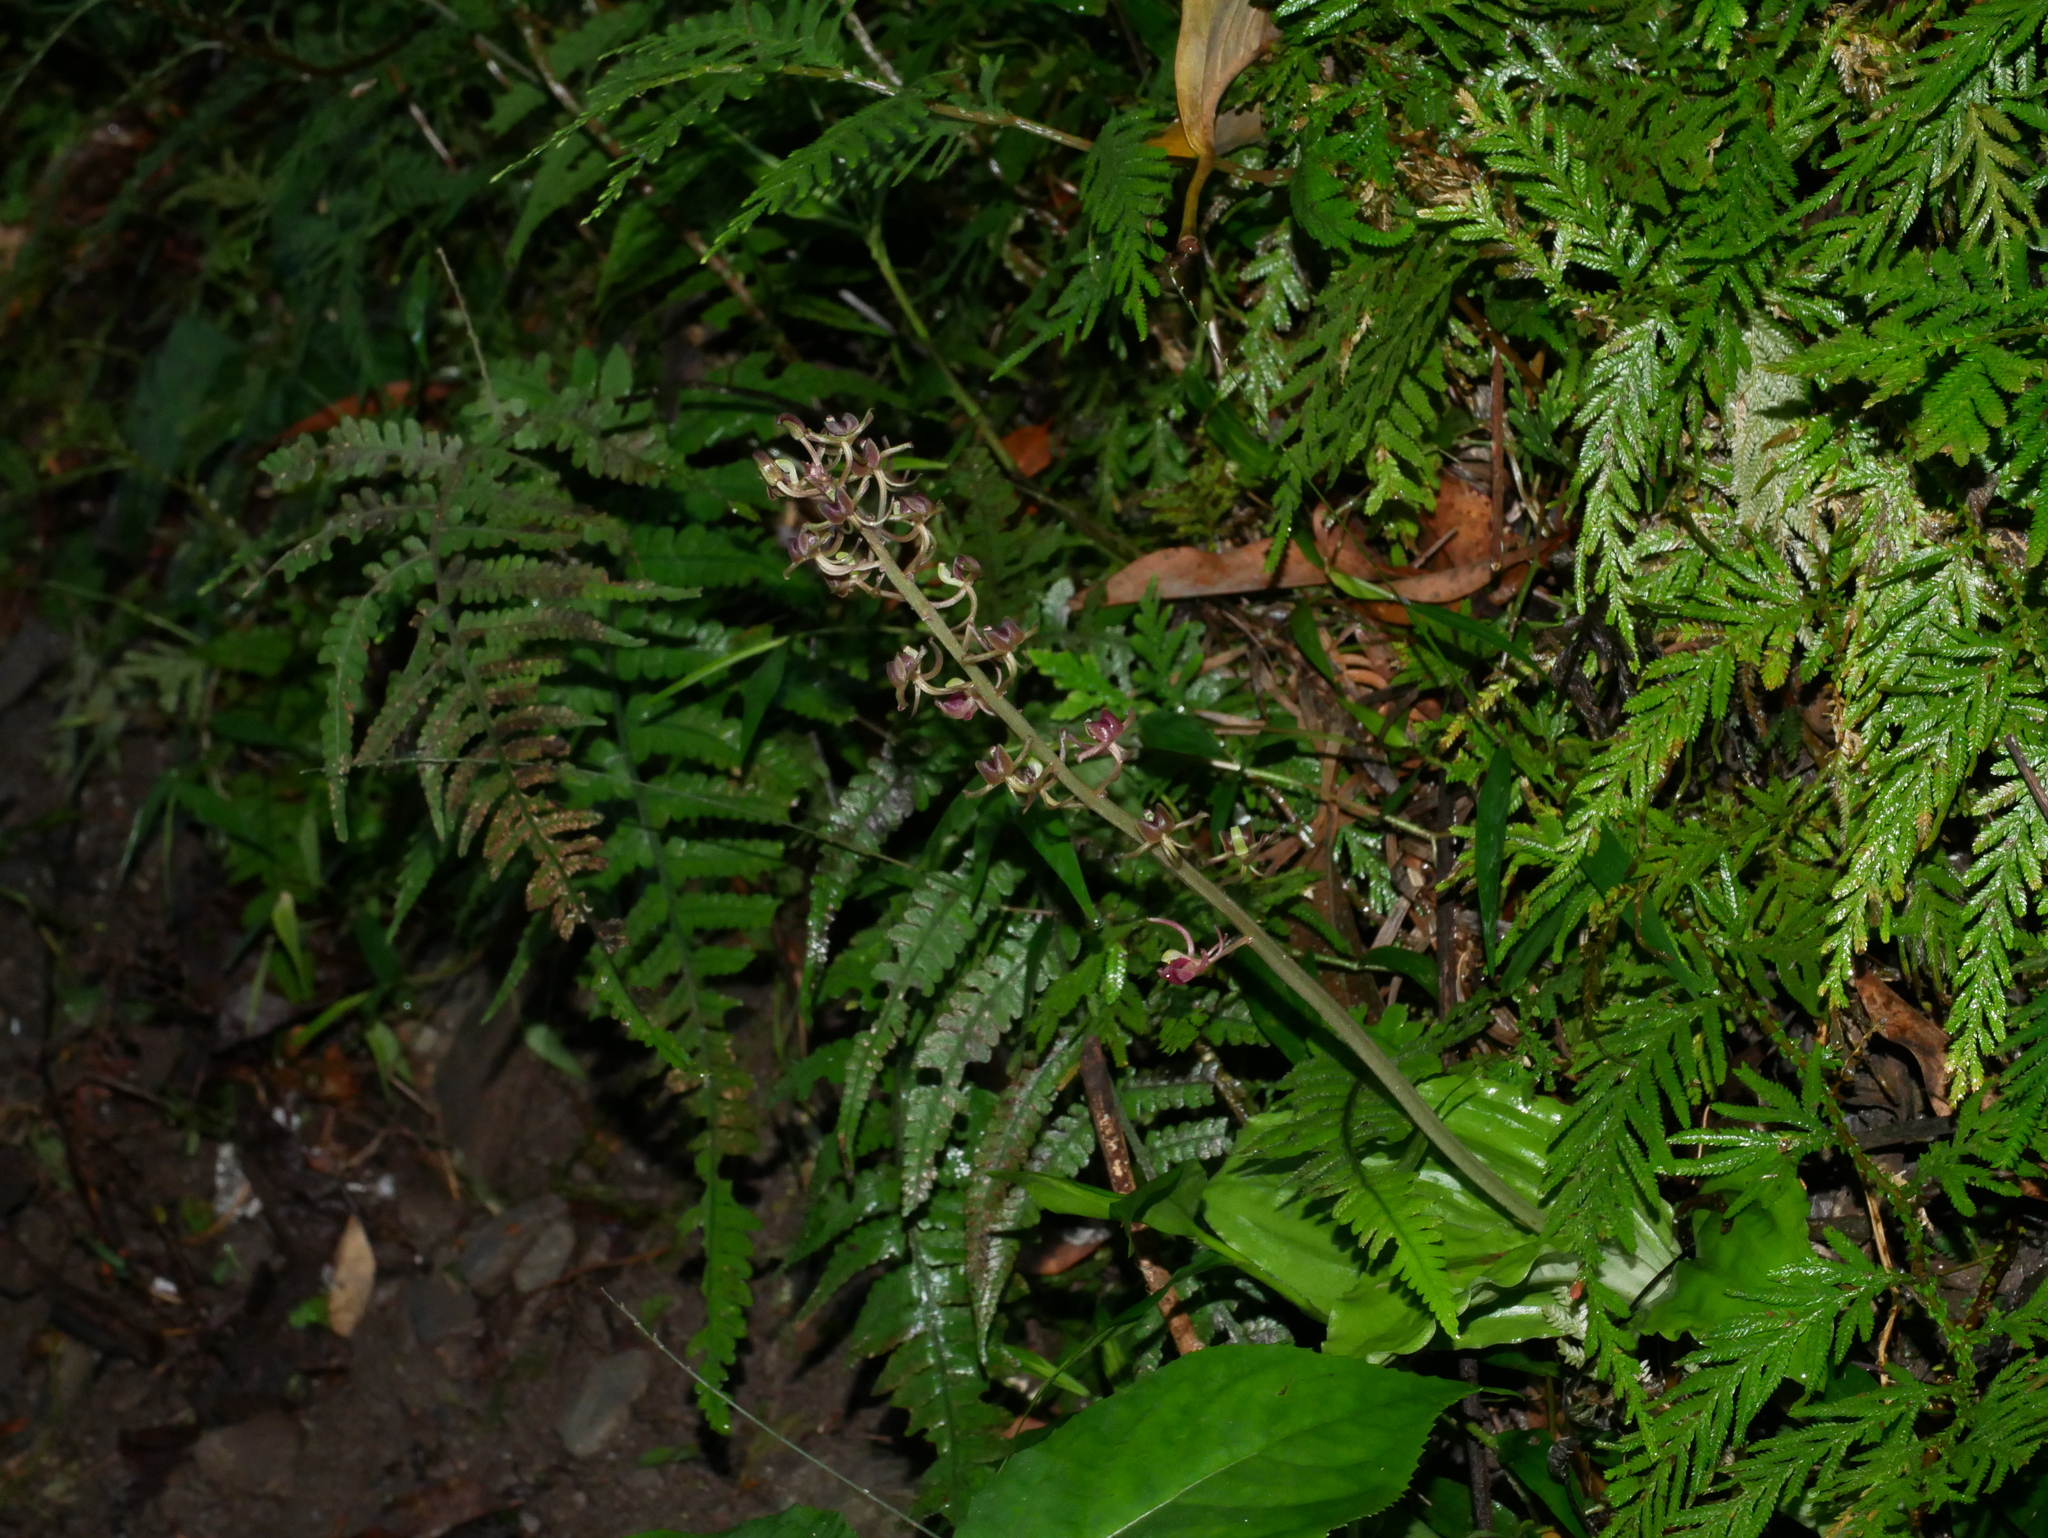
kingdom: Plantae
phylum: Tracheophyta
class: Liliopsida
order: Asparagales
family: Orchidaceae
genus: Liparis
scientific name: Liparis formosana
